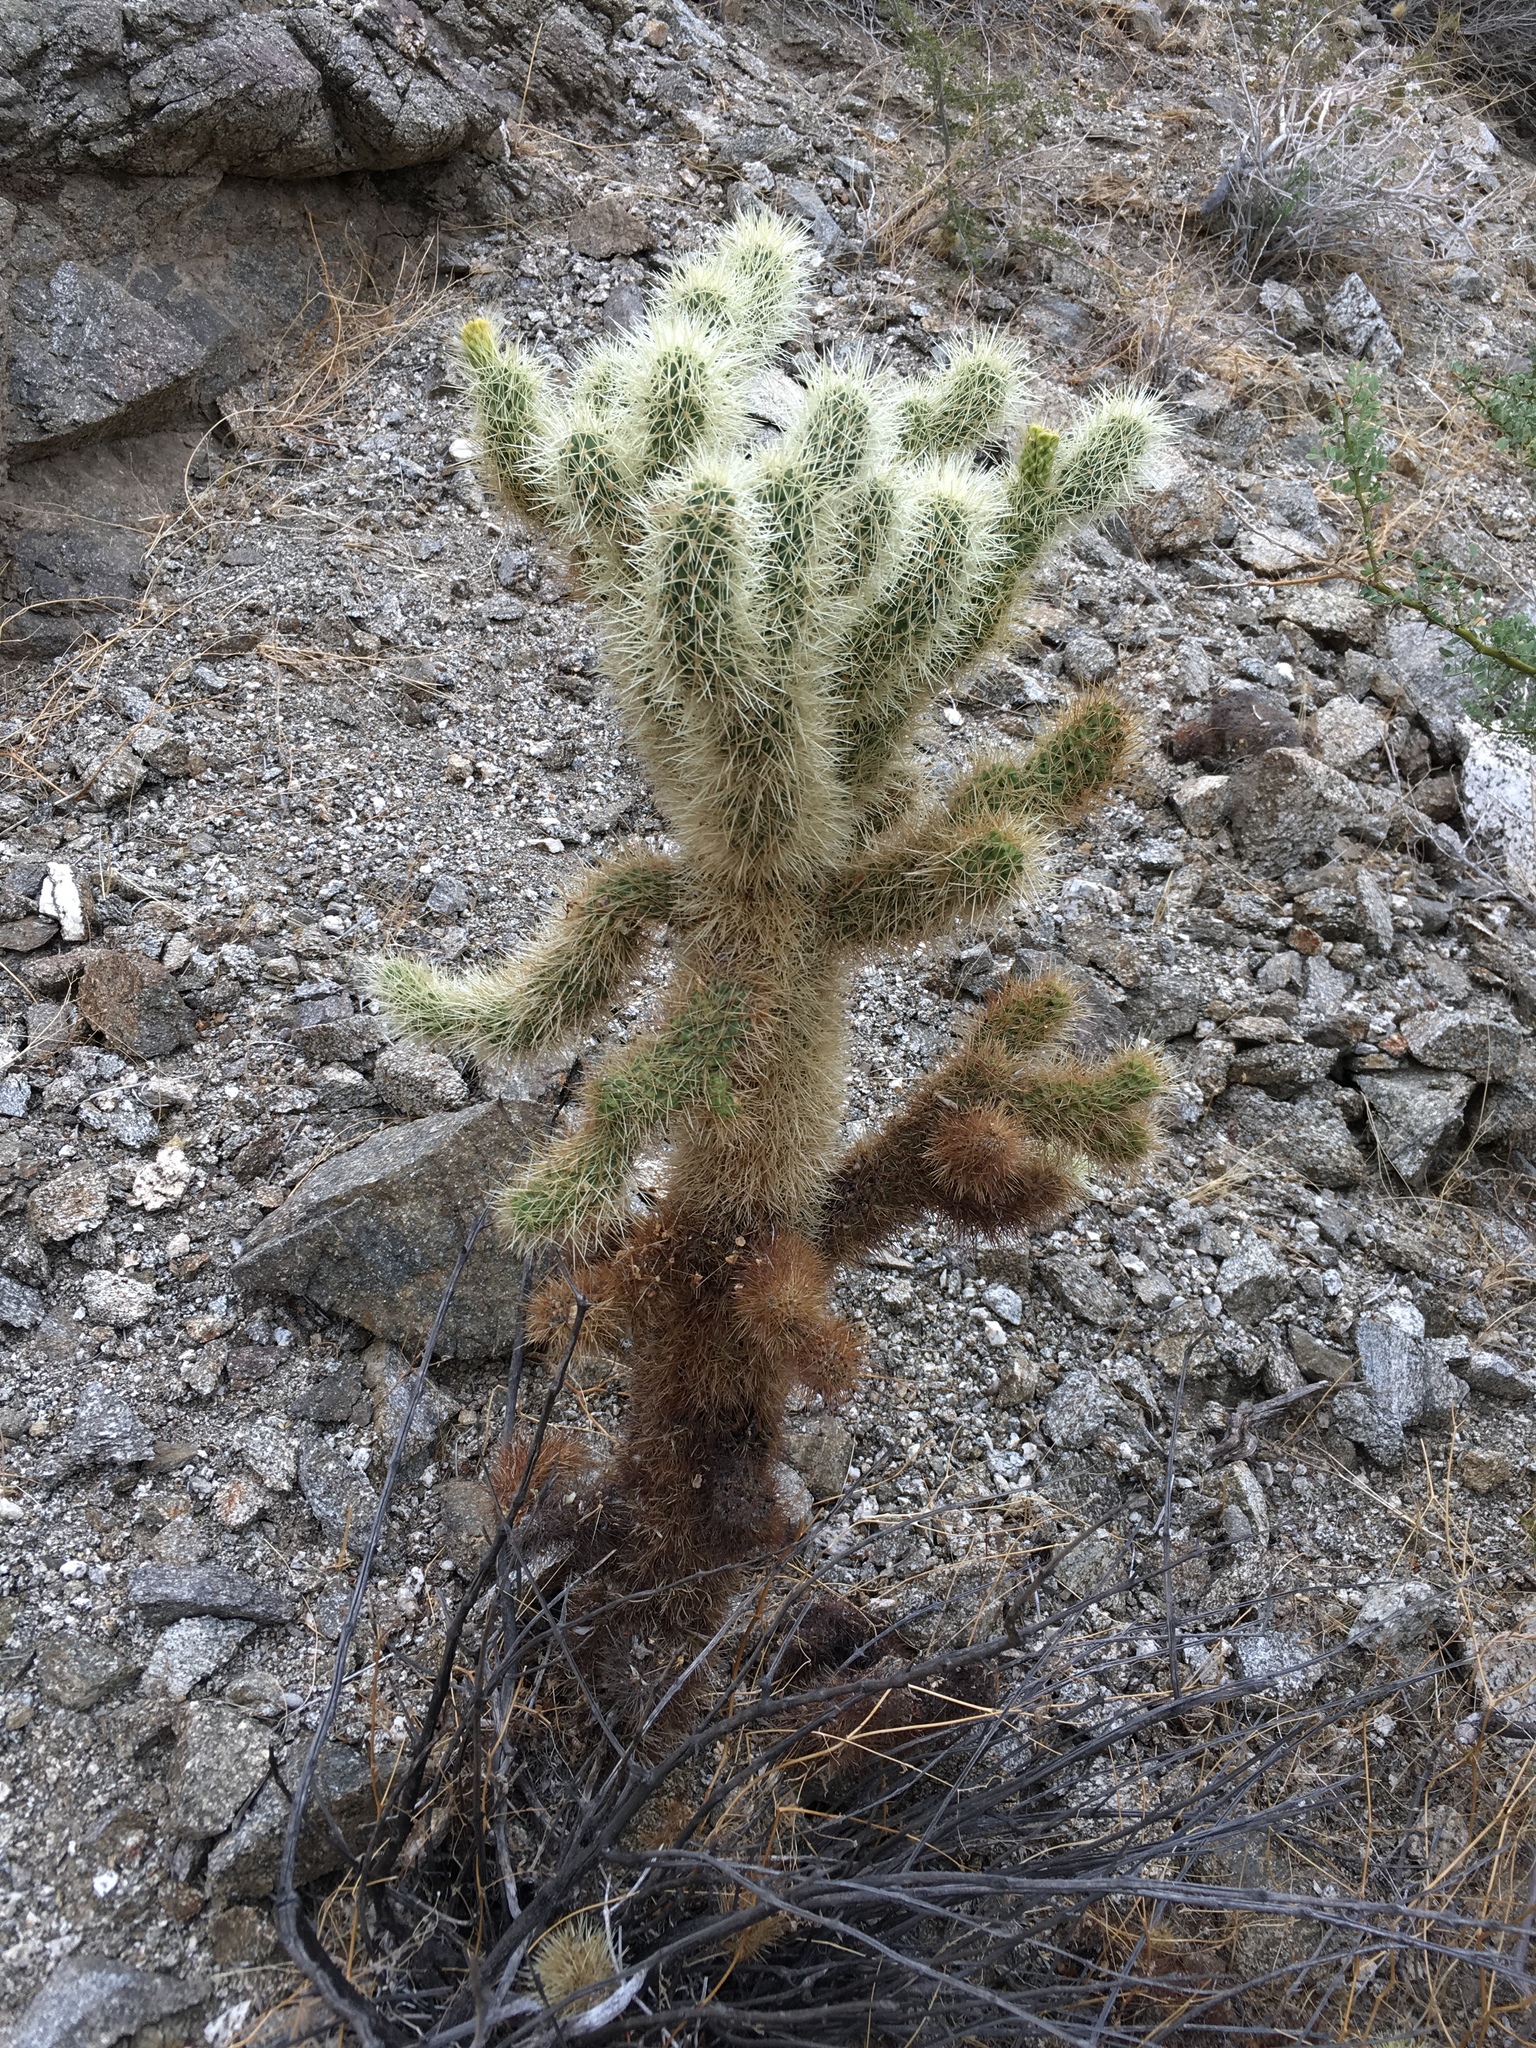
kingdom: Plantae
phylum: Tracheophyta
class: Magnoliopsida
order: Caryophyllales
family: Cactaceae
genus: Cylindropuntia
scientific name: Cylindropuntia fosbergii
